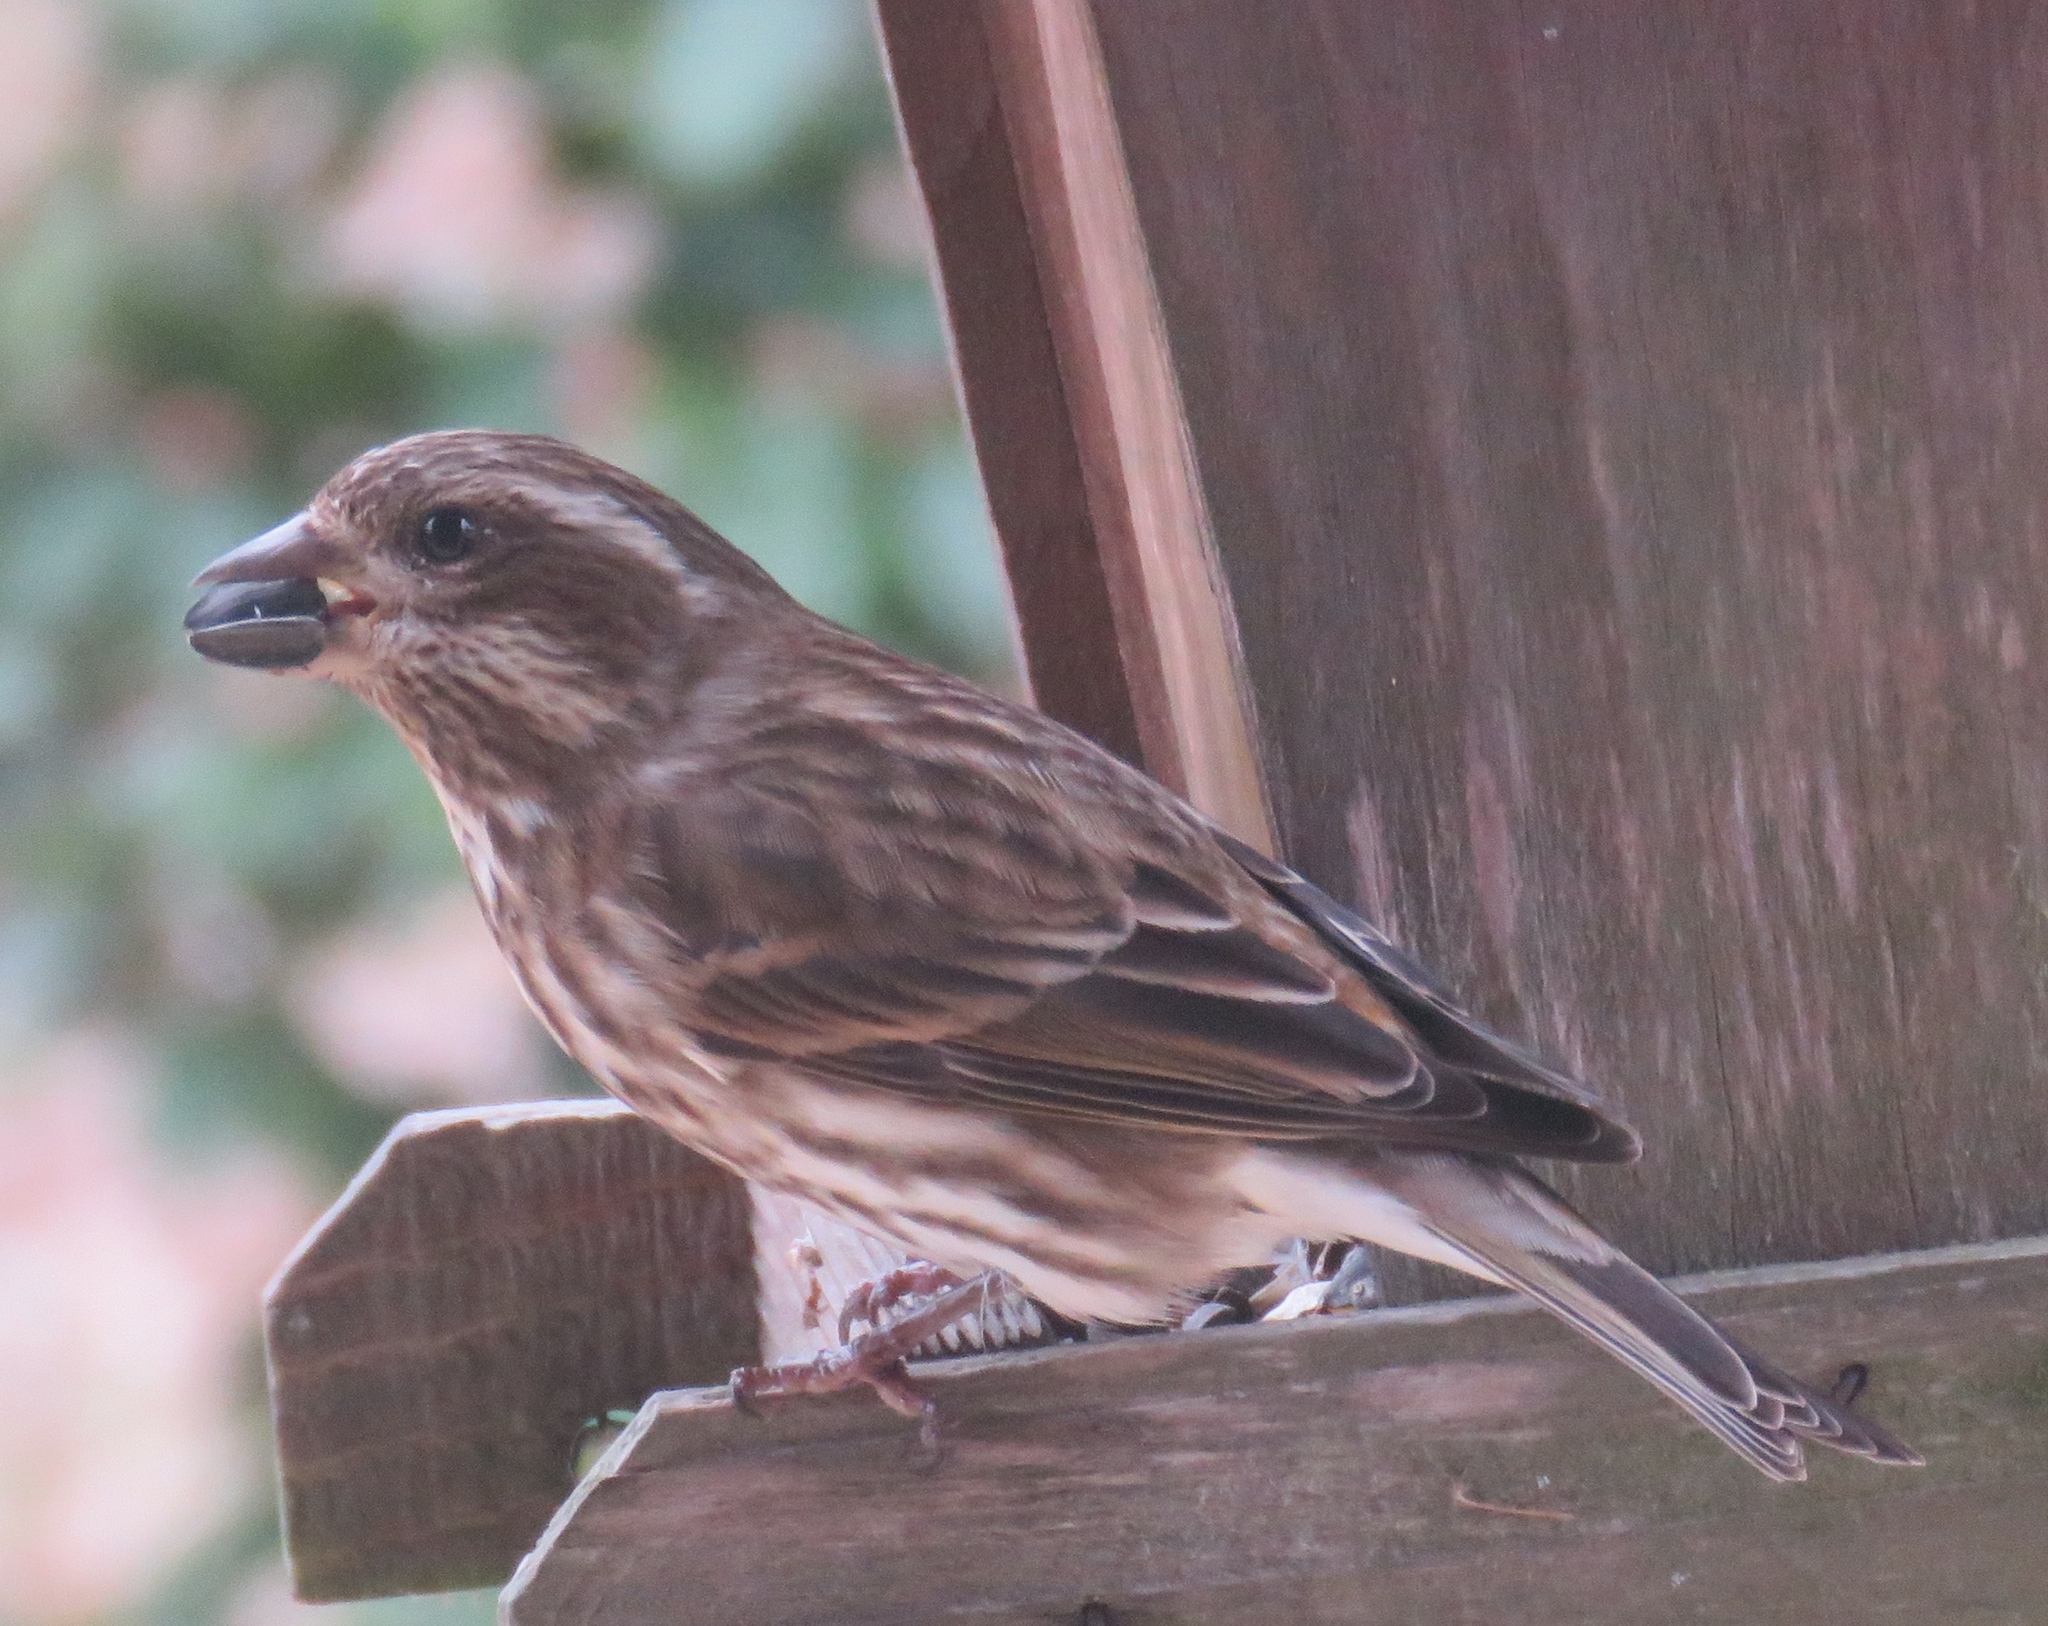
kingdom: Animalia
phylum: Chordata
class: Aves
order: Passeriformes
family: Fringillidae
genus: Haemorhous
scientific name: Haemorhous purpureus
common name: Purple finch
